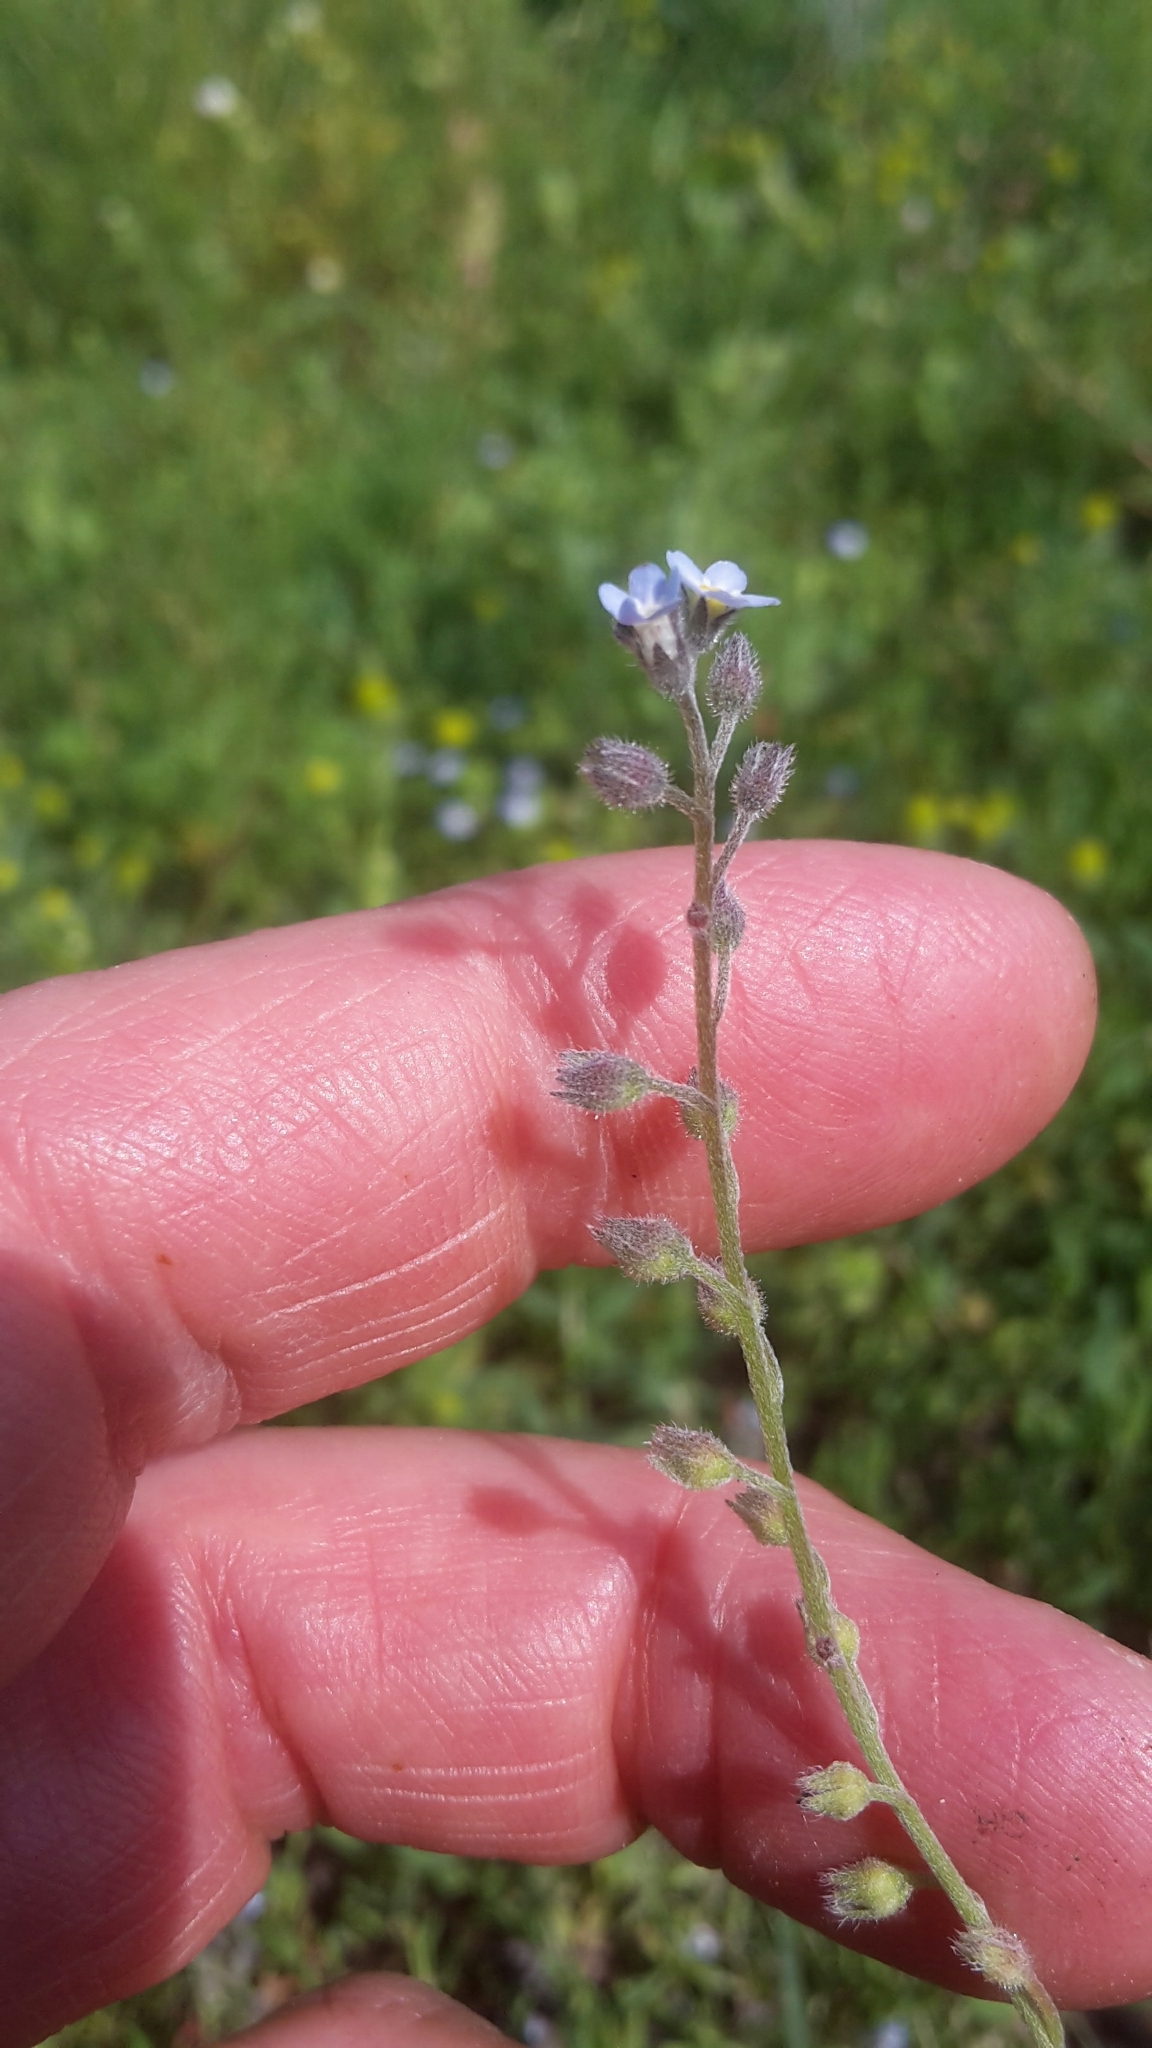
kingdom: Plantae
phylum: Tracheophyta
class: Magnoliopsida
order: Boraginales
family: Boraginaceae
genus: Myosotis
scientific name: Myosotis arvensis
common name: Field forget-me-not
